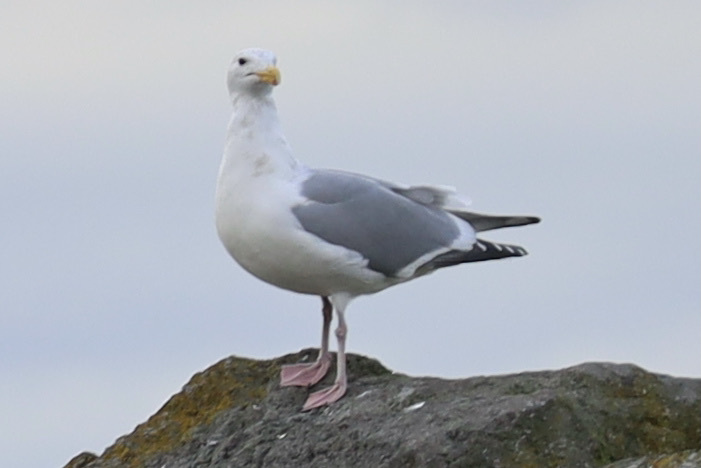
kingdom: Animalia
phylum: Chordata
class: Aves
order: Charadriiformes
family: Laridae
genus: Larus
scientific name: Larus
